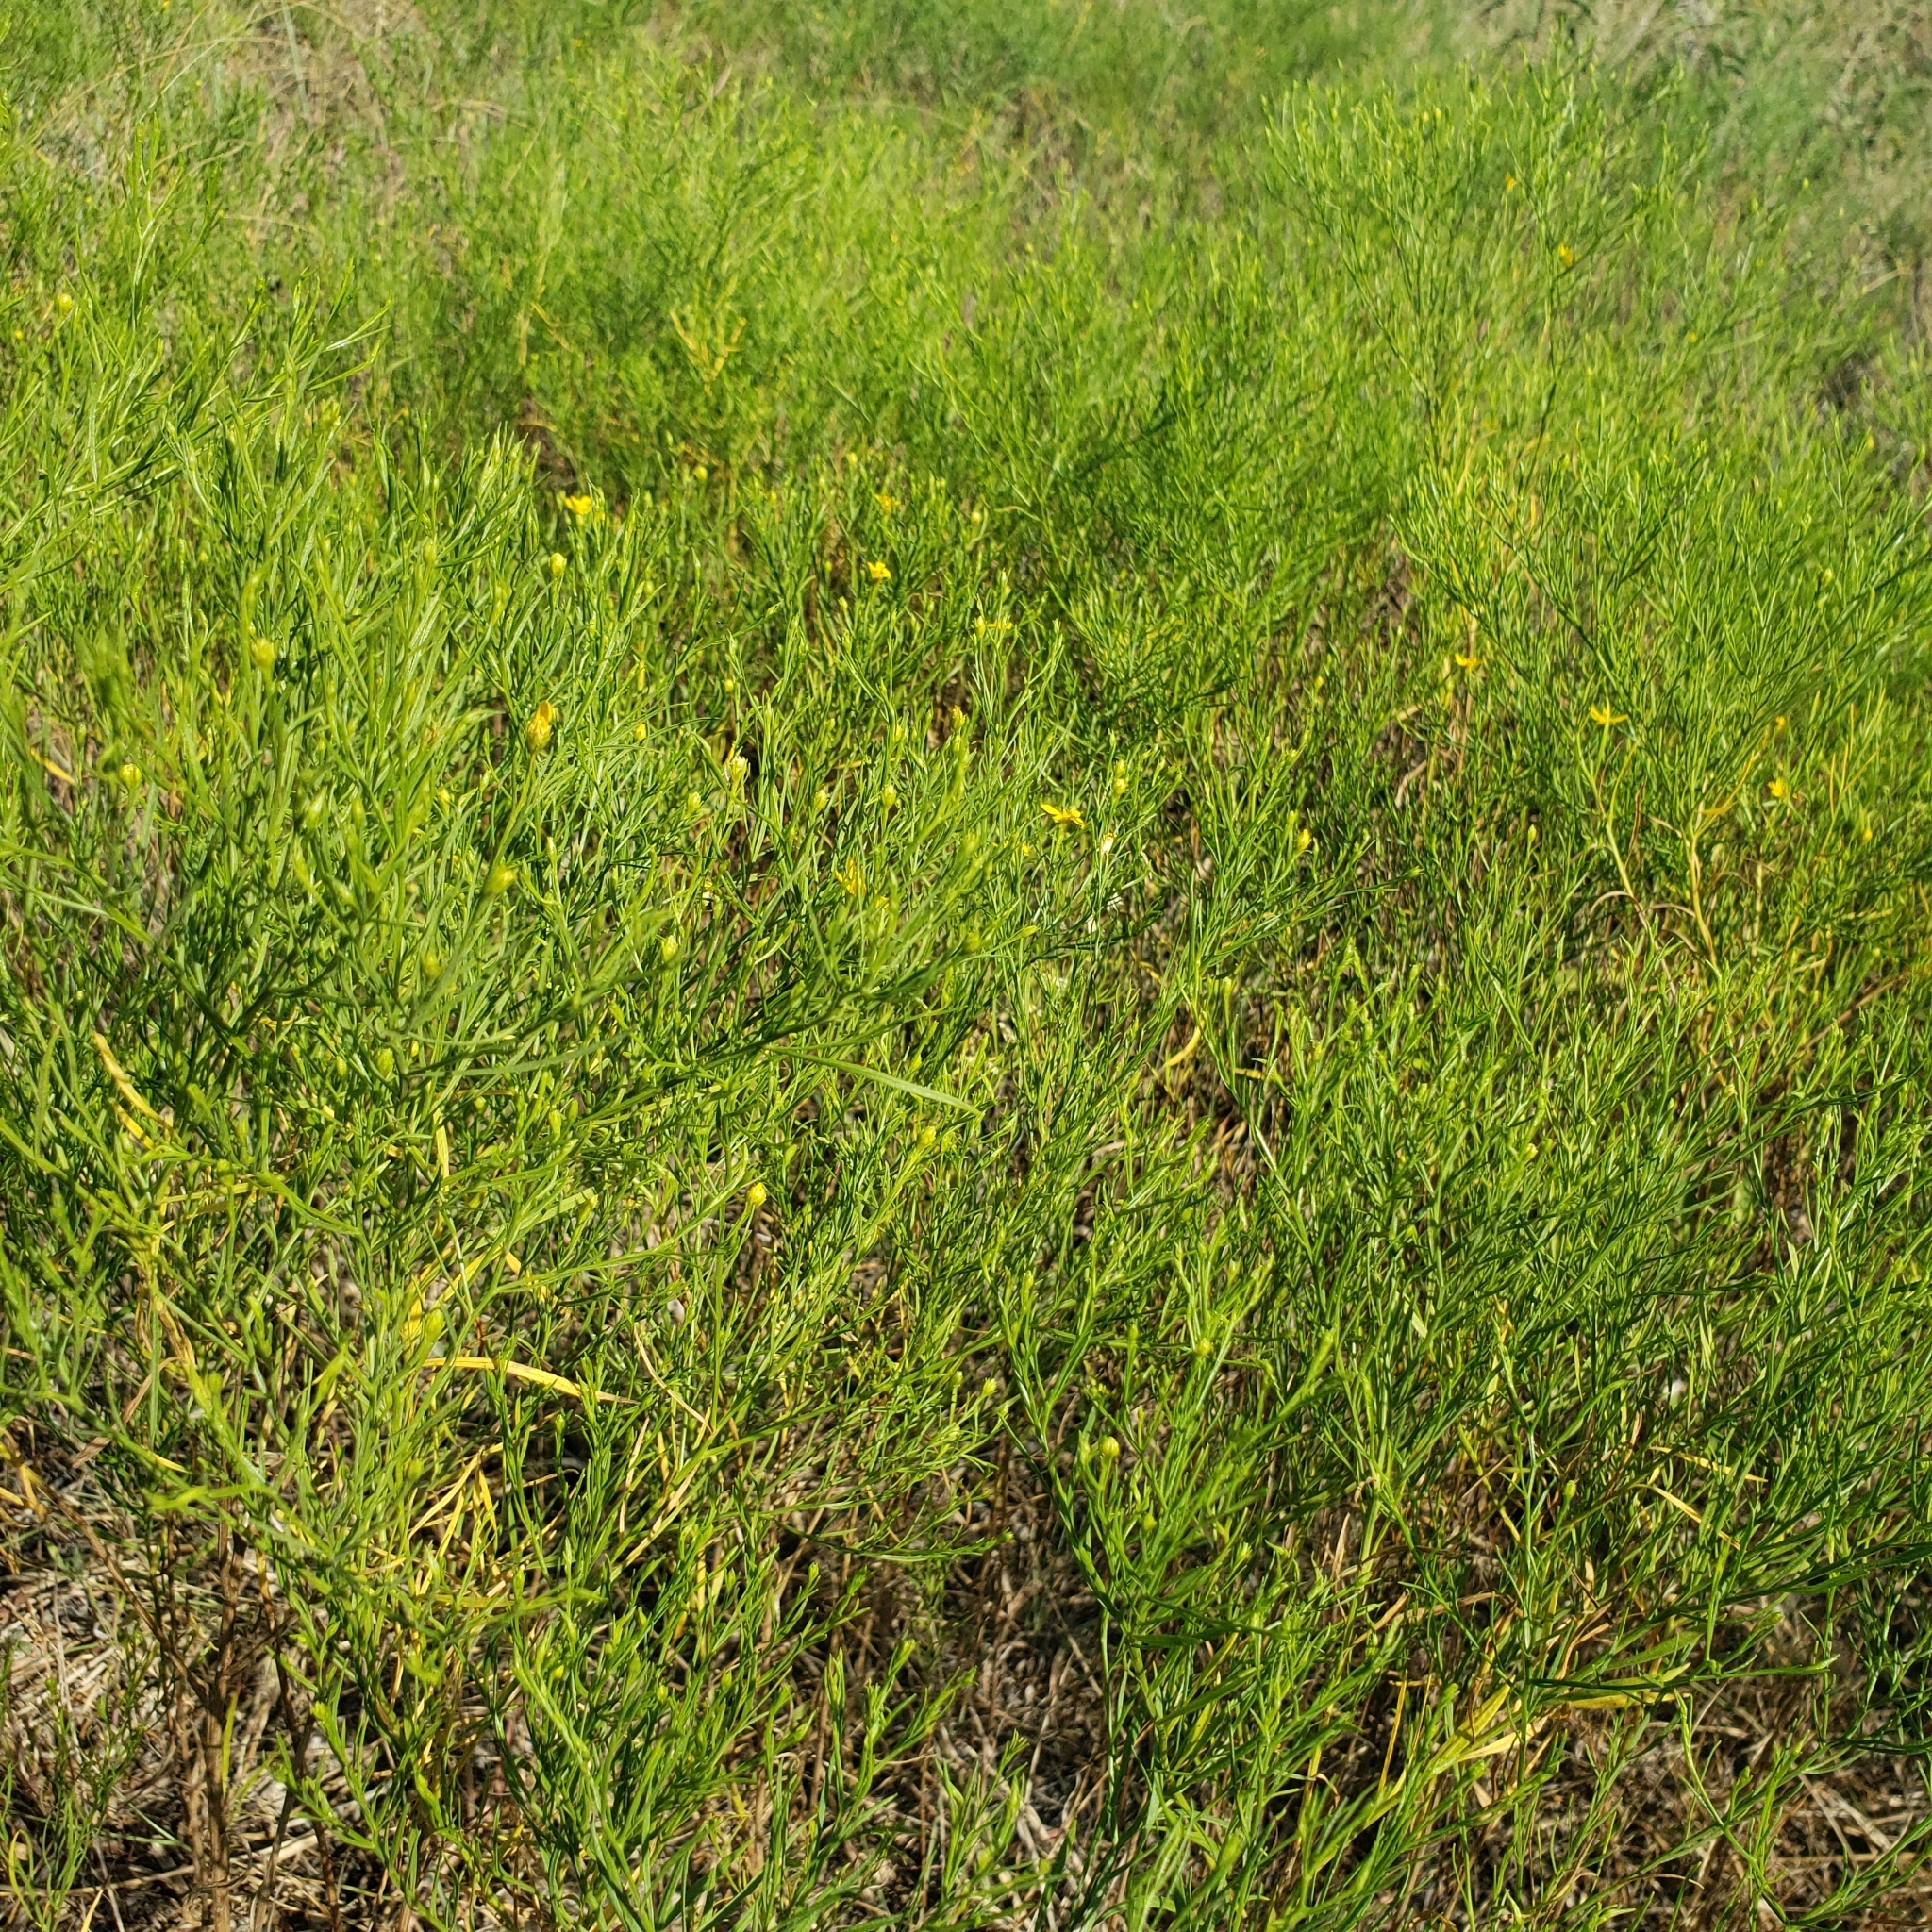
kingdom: Plantae
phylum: Tracheophyta
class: Magnoliopsida
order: Asterales
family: Asteraceae
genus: Amphiachyris
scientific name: Amphiachyris dracunculoides
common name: Broomweed
